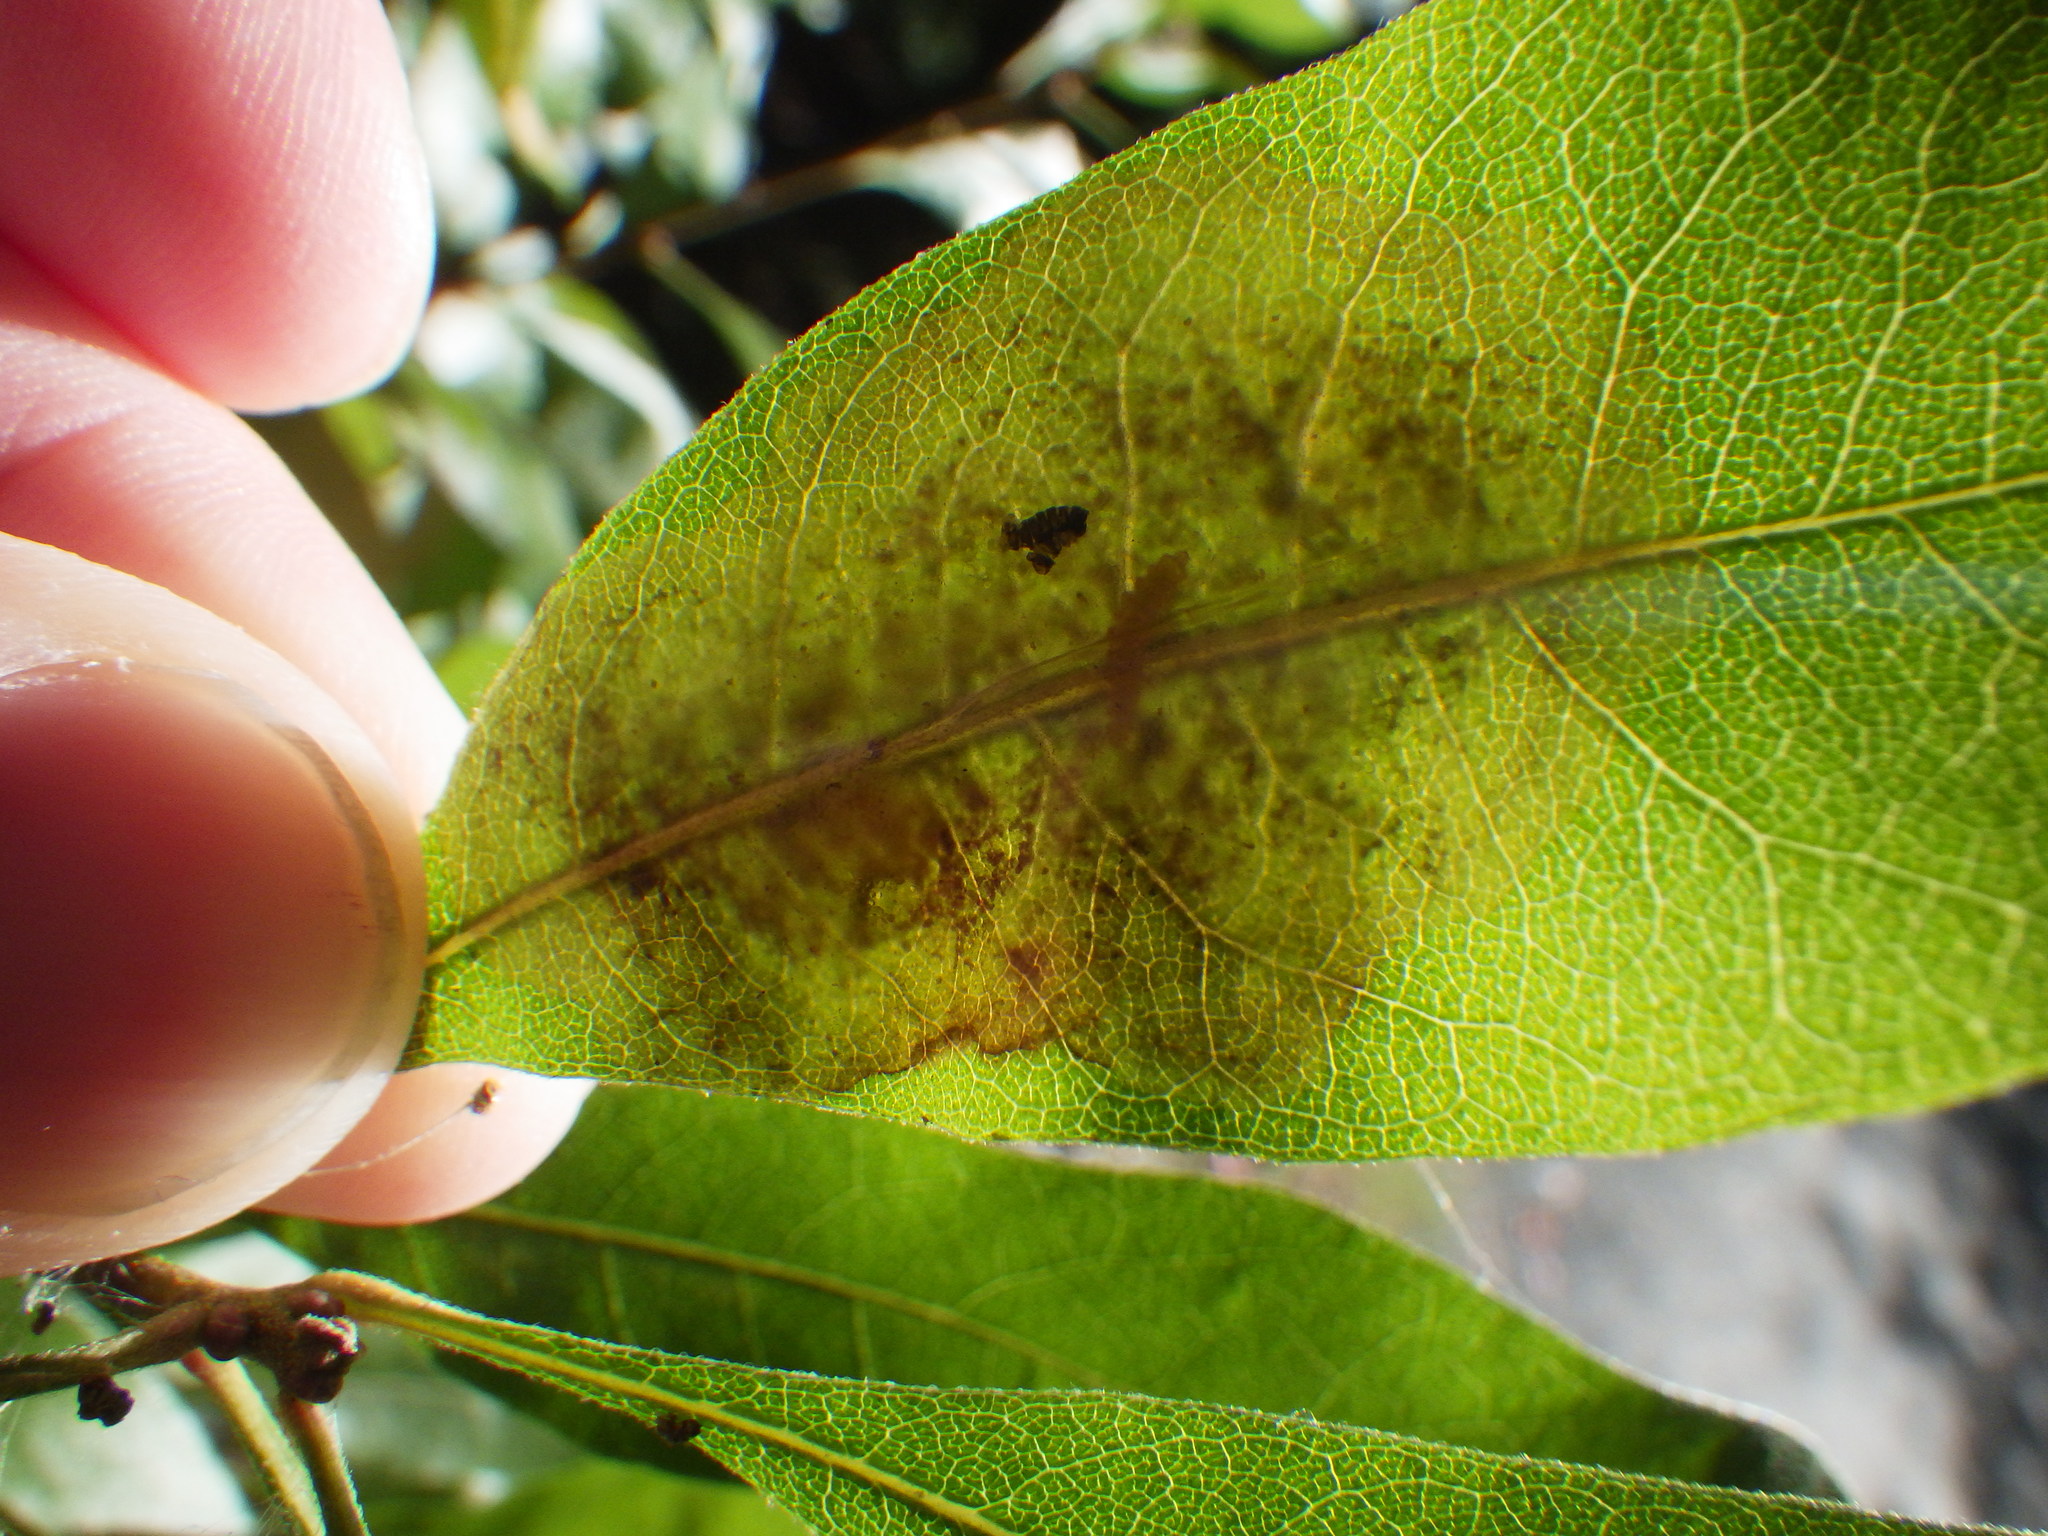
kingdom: Animalia
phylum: Arthropoda
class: Insecta
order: Lepidoptera
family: Gracillariidae
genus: Cameraria
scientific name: Cameraria picturatella
